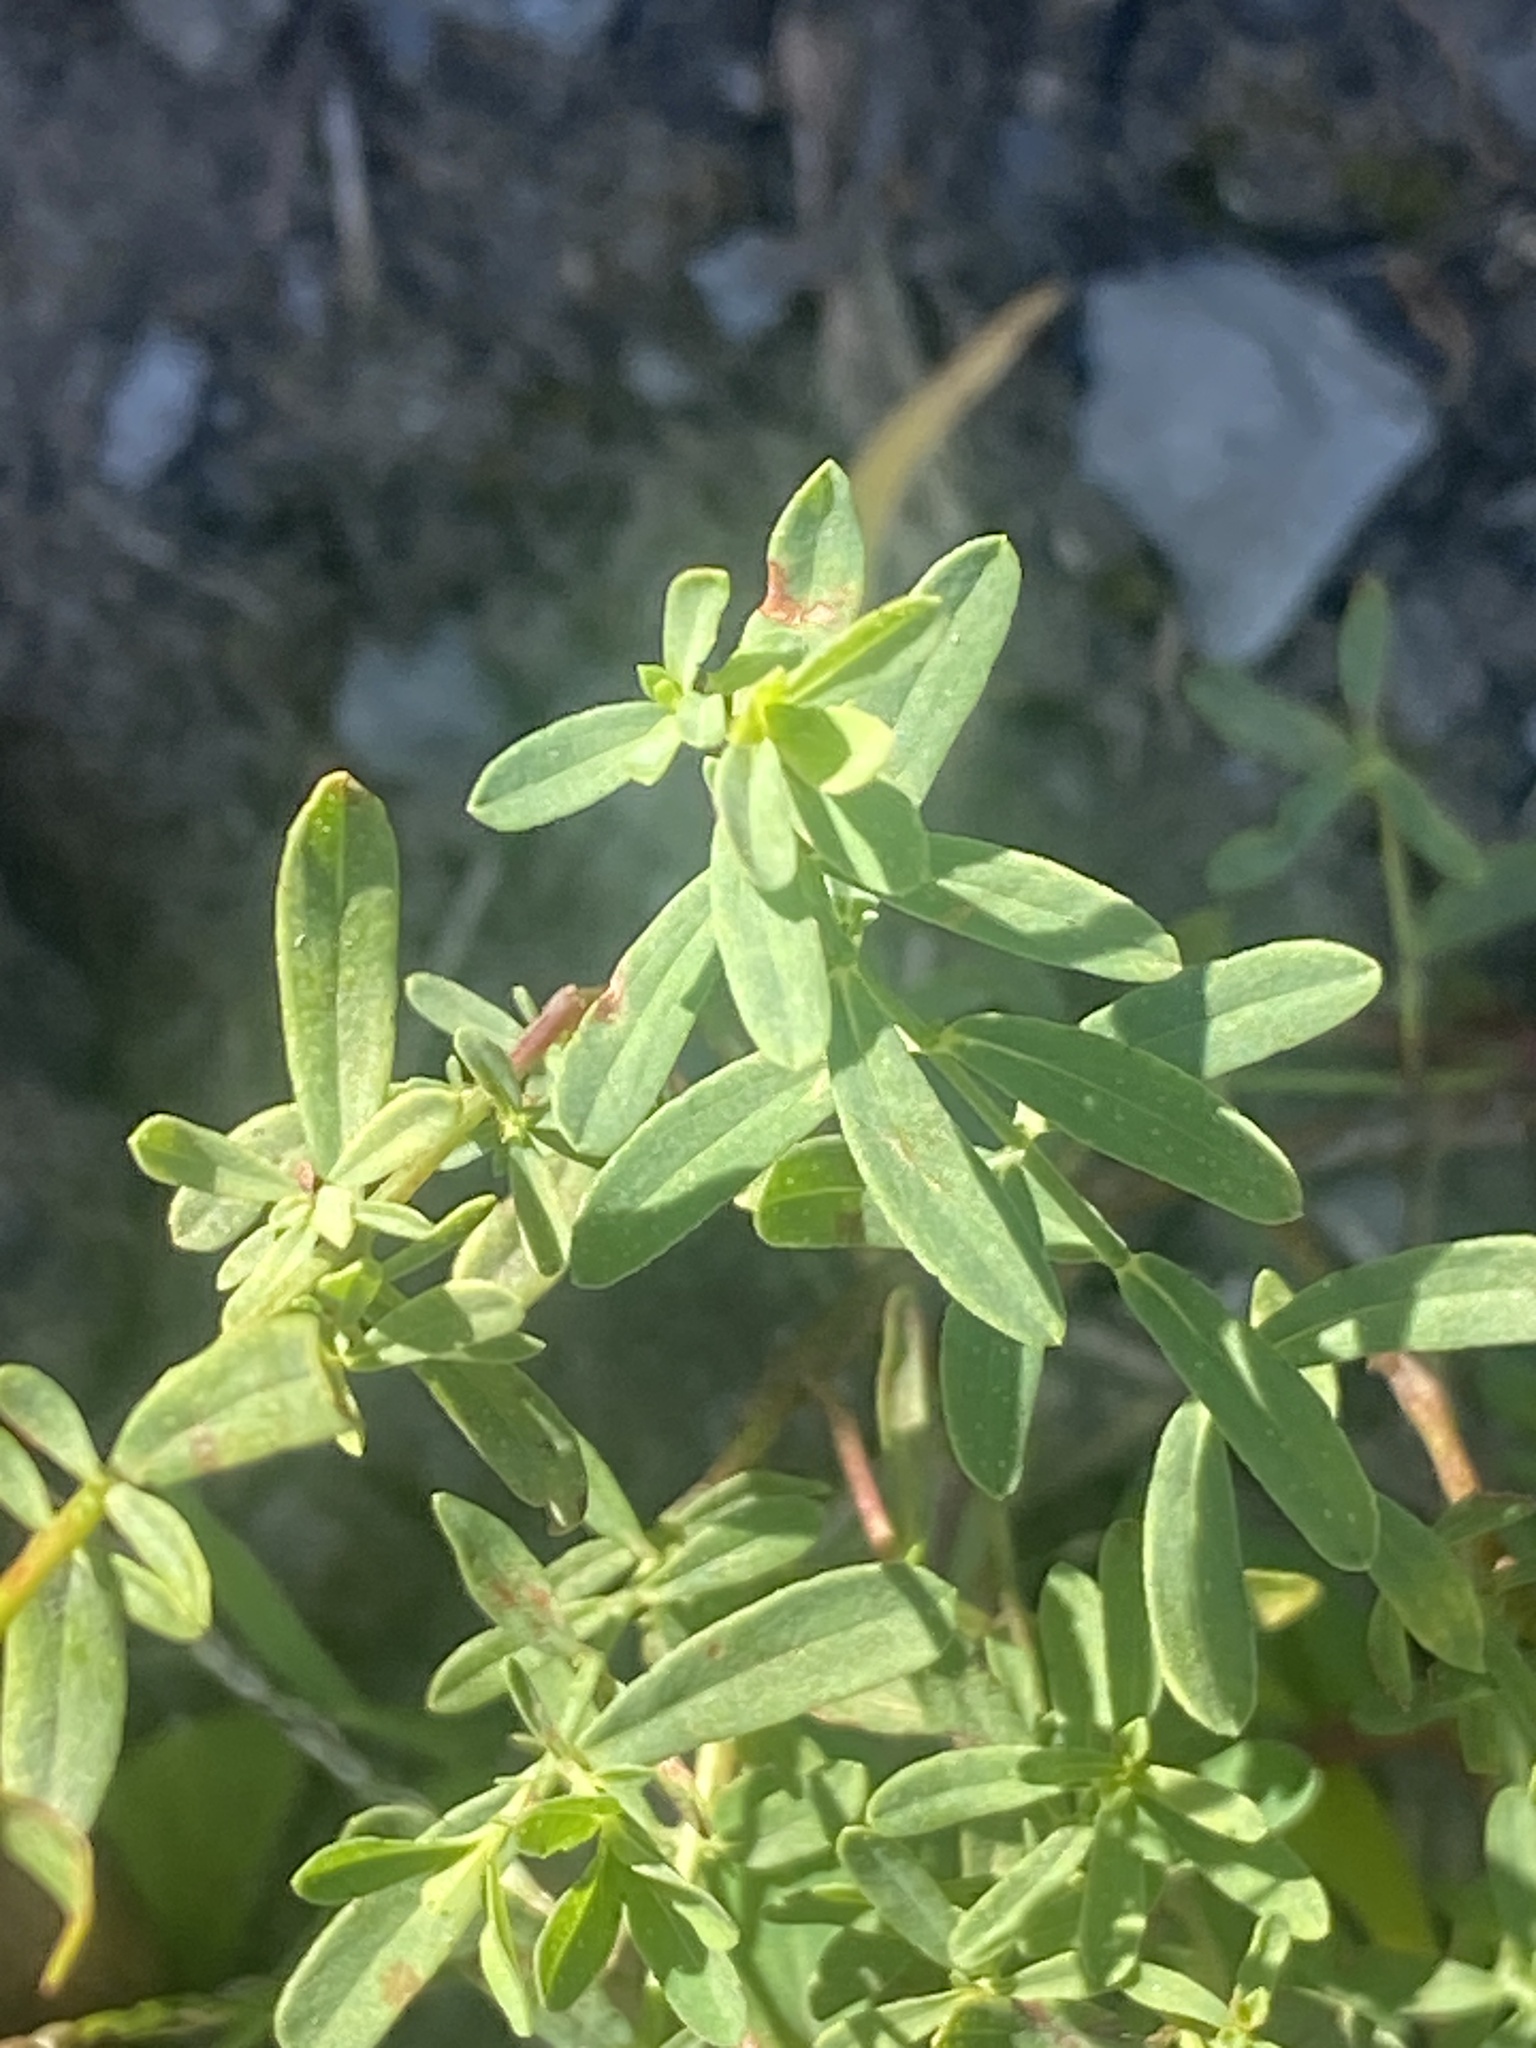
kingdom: Plantae
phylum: Tracheophyta
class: Magnoliopsida
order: Malpighiales
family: Hypericaceae
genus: Hypericum
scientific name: Hypericum perforatum
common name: Common st. johnswort
